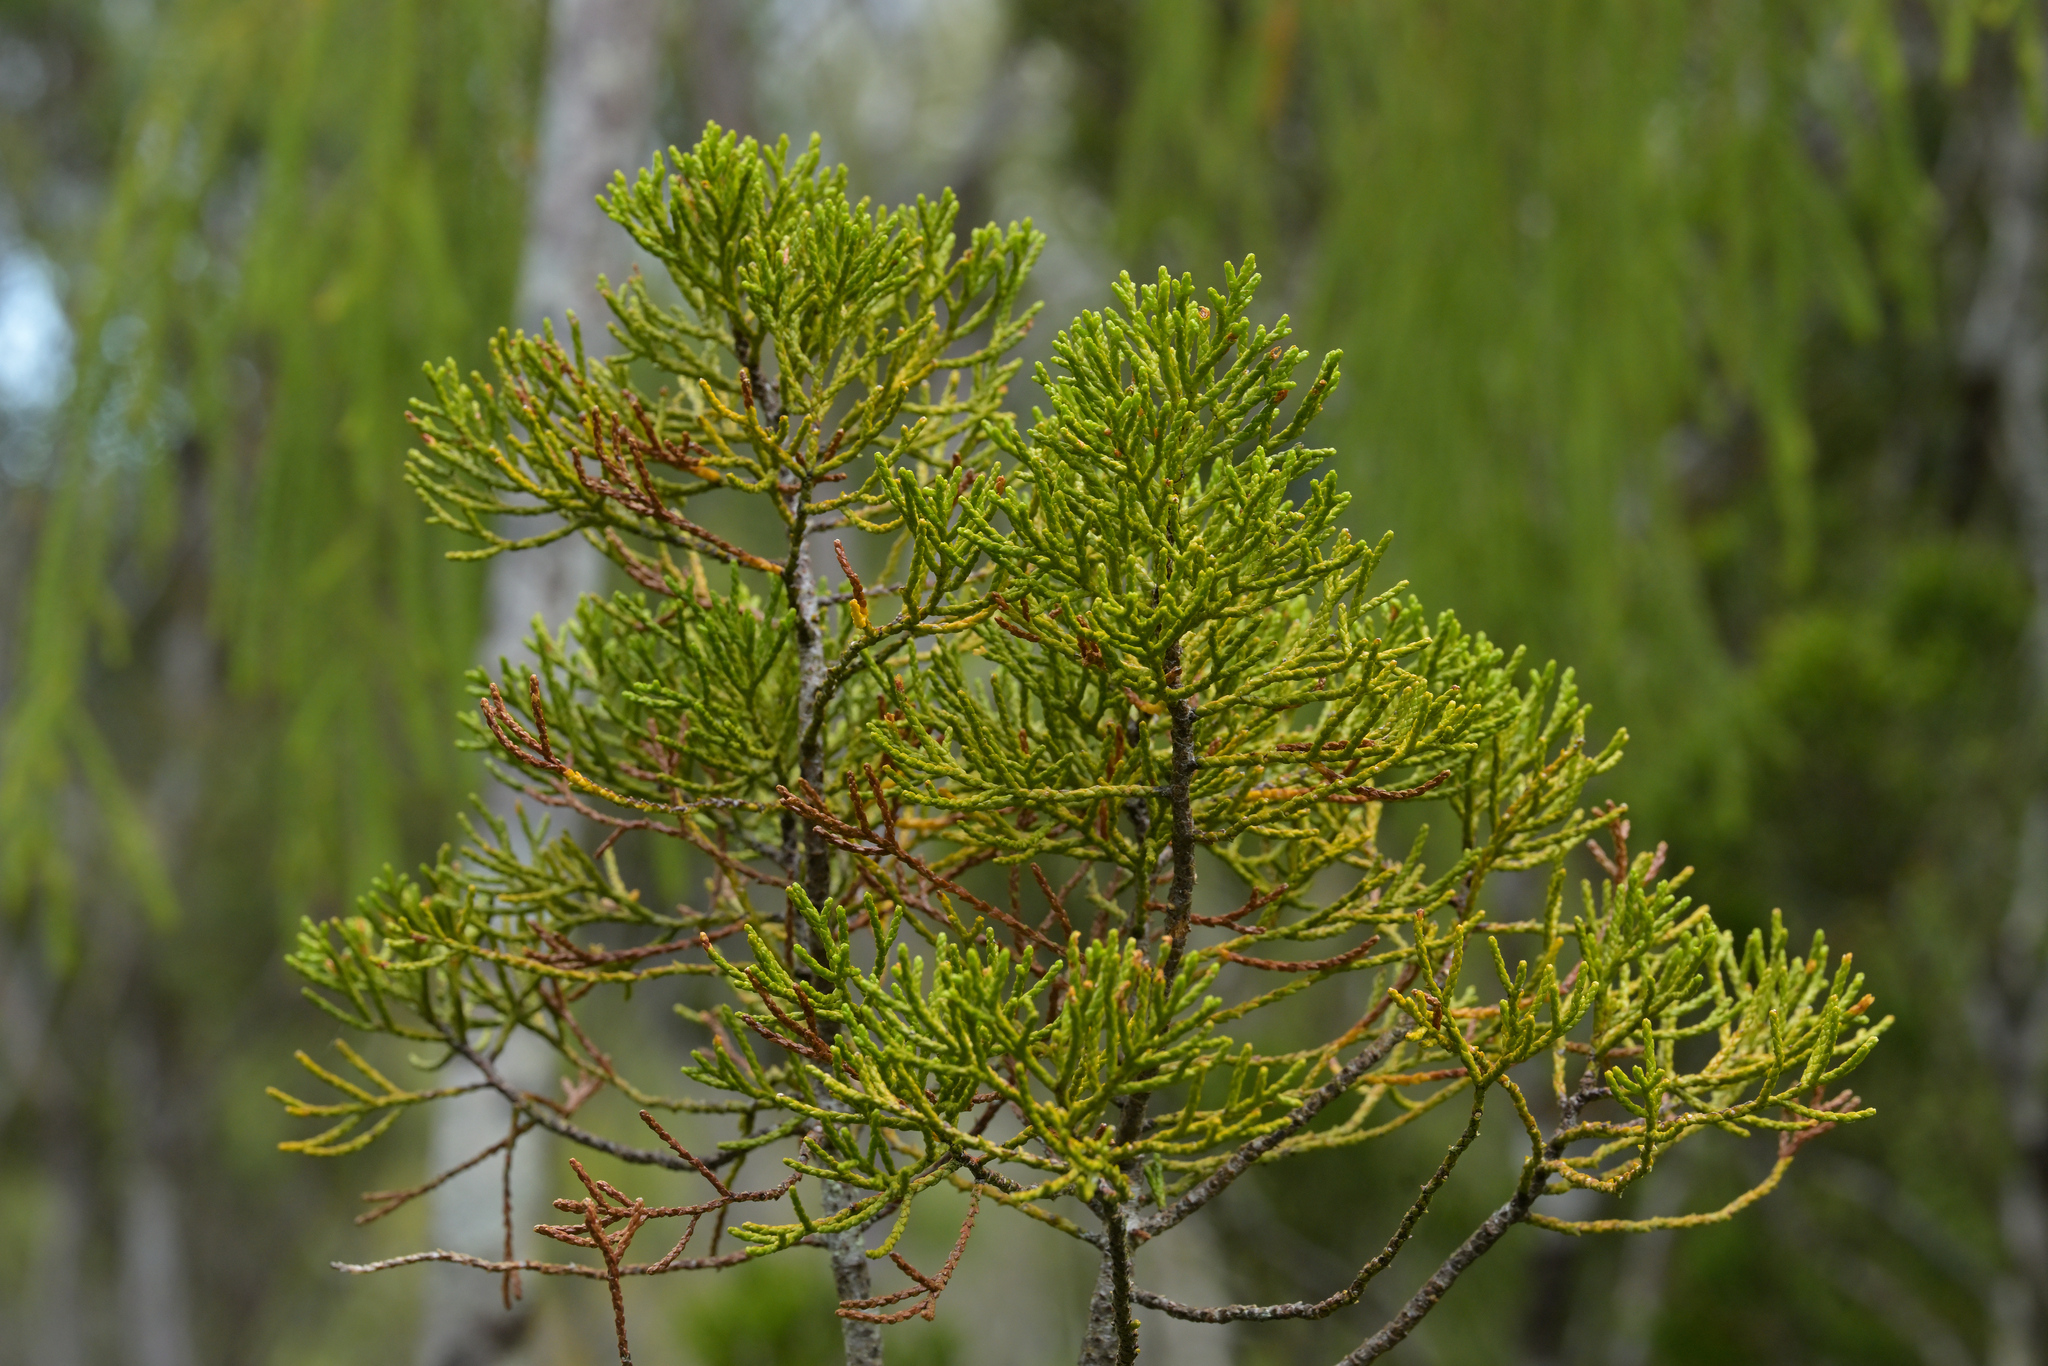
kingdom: Plantae
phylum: Tracheophyta
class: Pinopsida
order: Pinales
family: Podocarpaceae
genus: Manoao
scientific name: Manoao colensoi
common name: Silver pine
